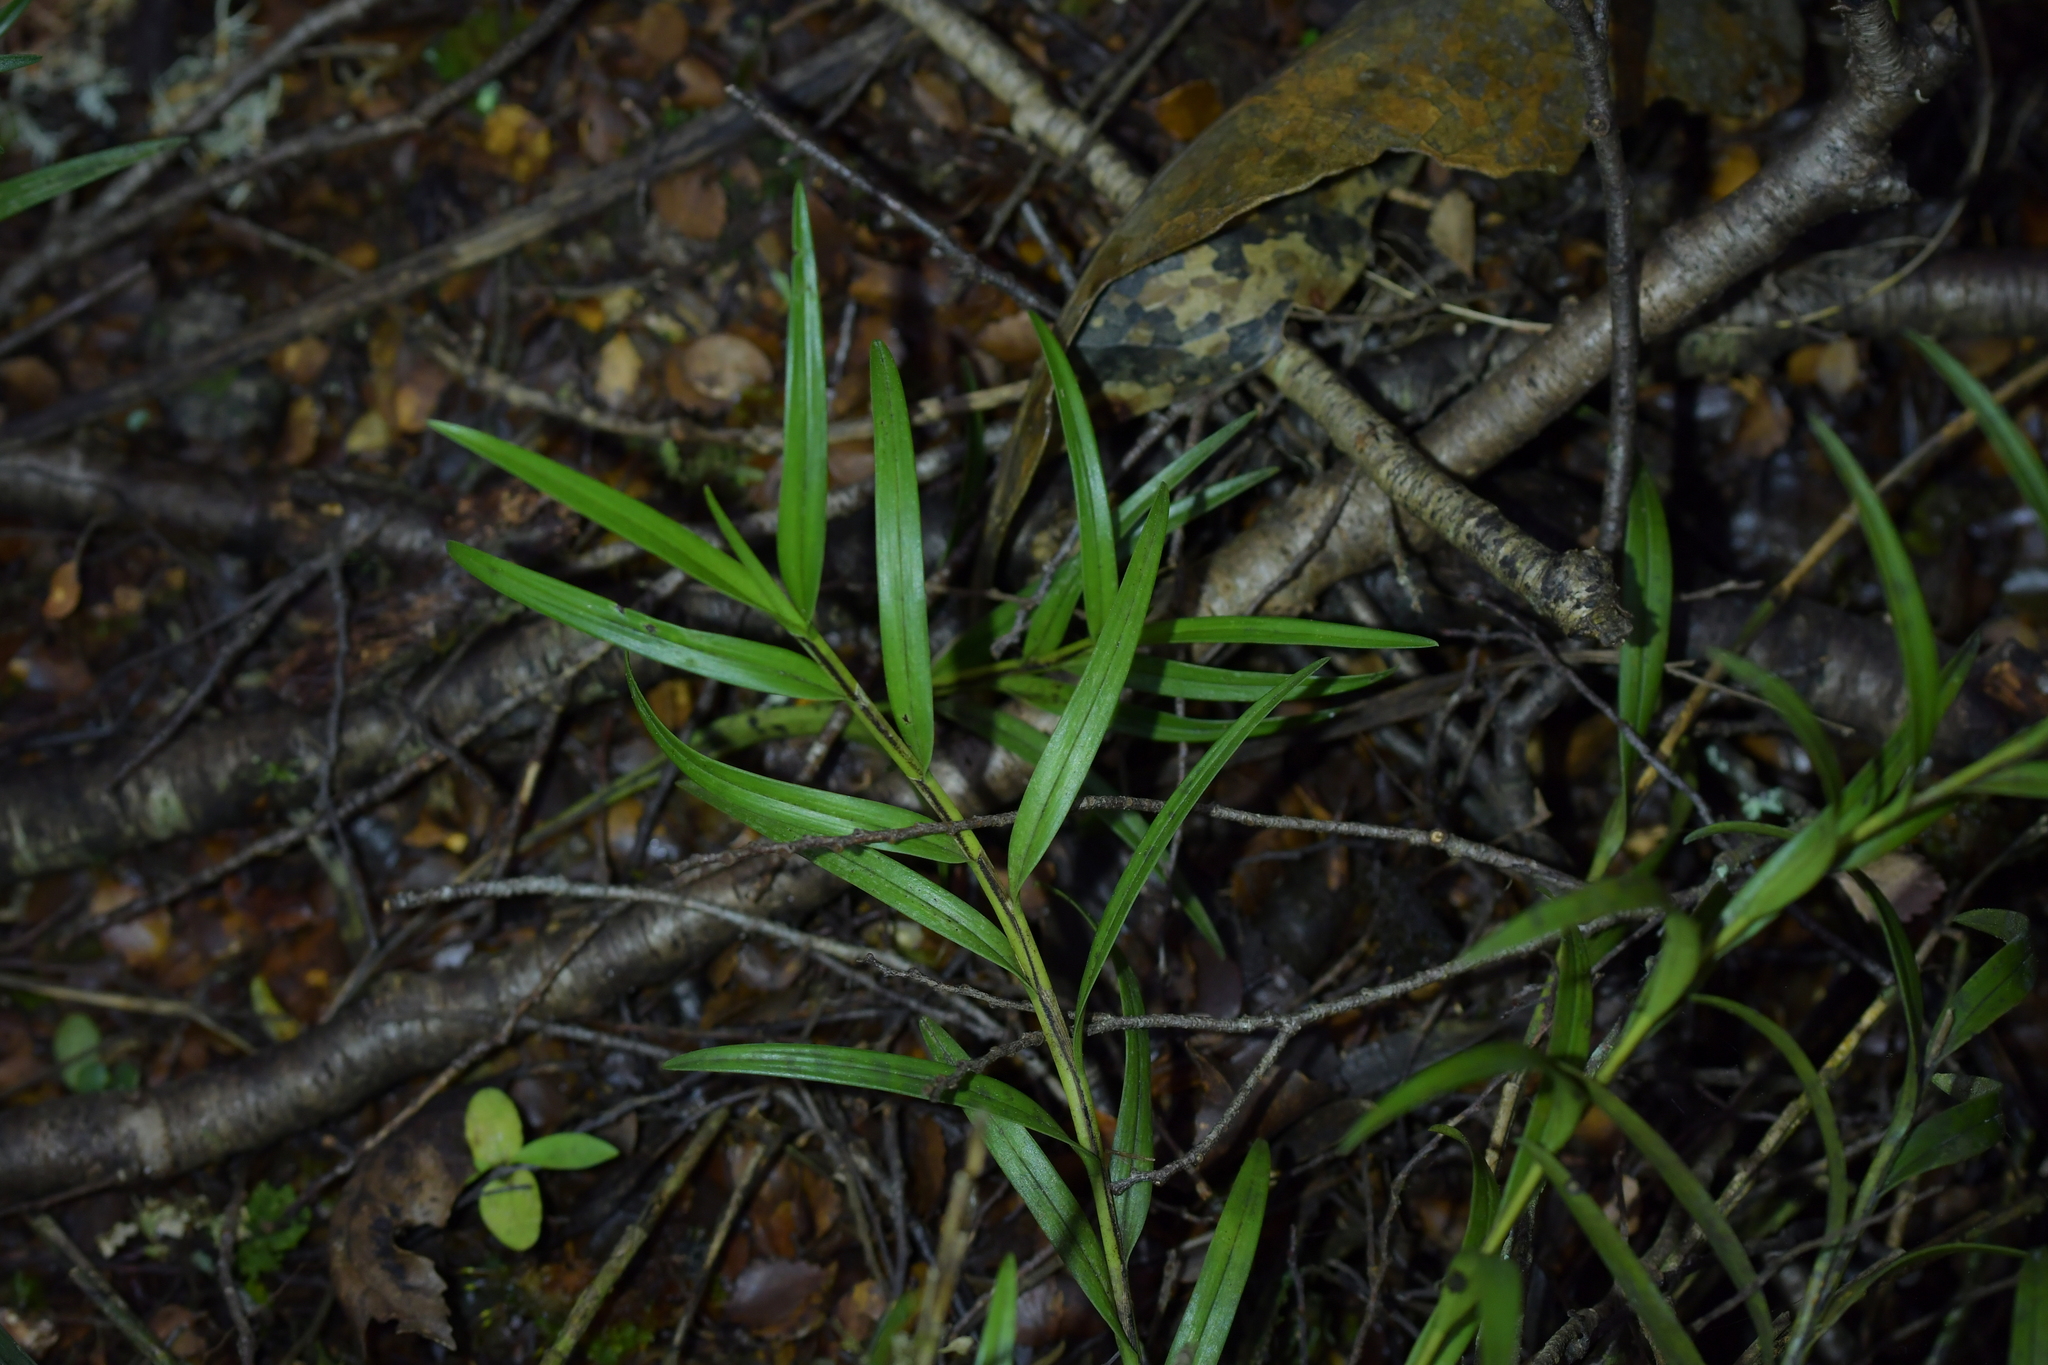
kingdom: Plantae
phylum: Tracheophyta
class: Liliopsida
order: Asparagales
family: Orchidaceae
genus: Earina
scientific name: Earina autumnalis
